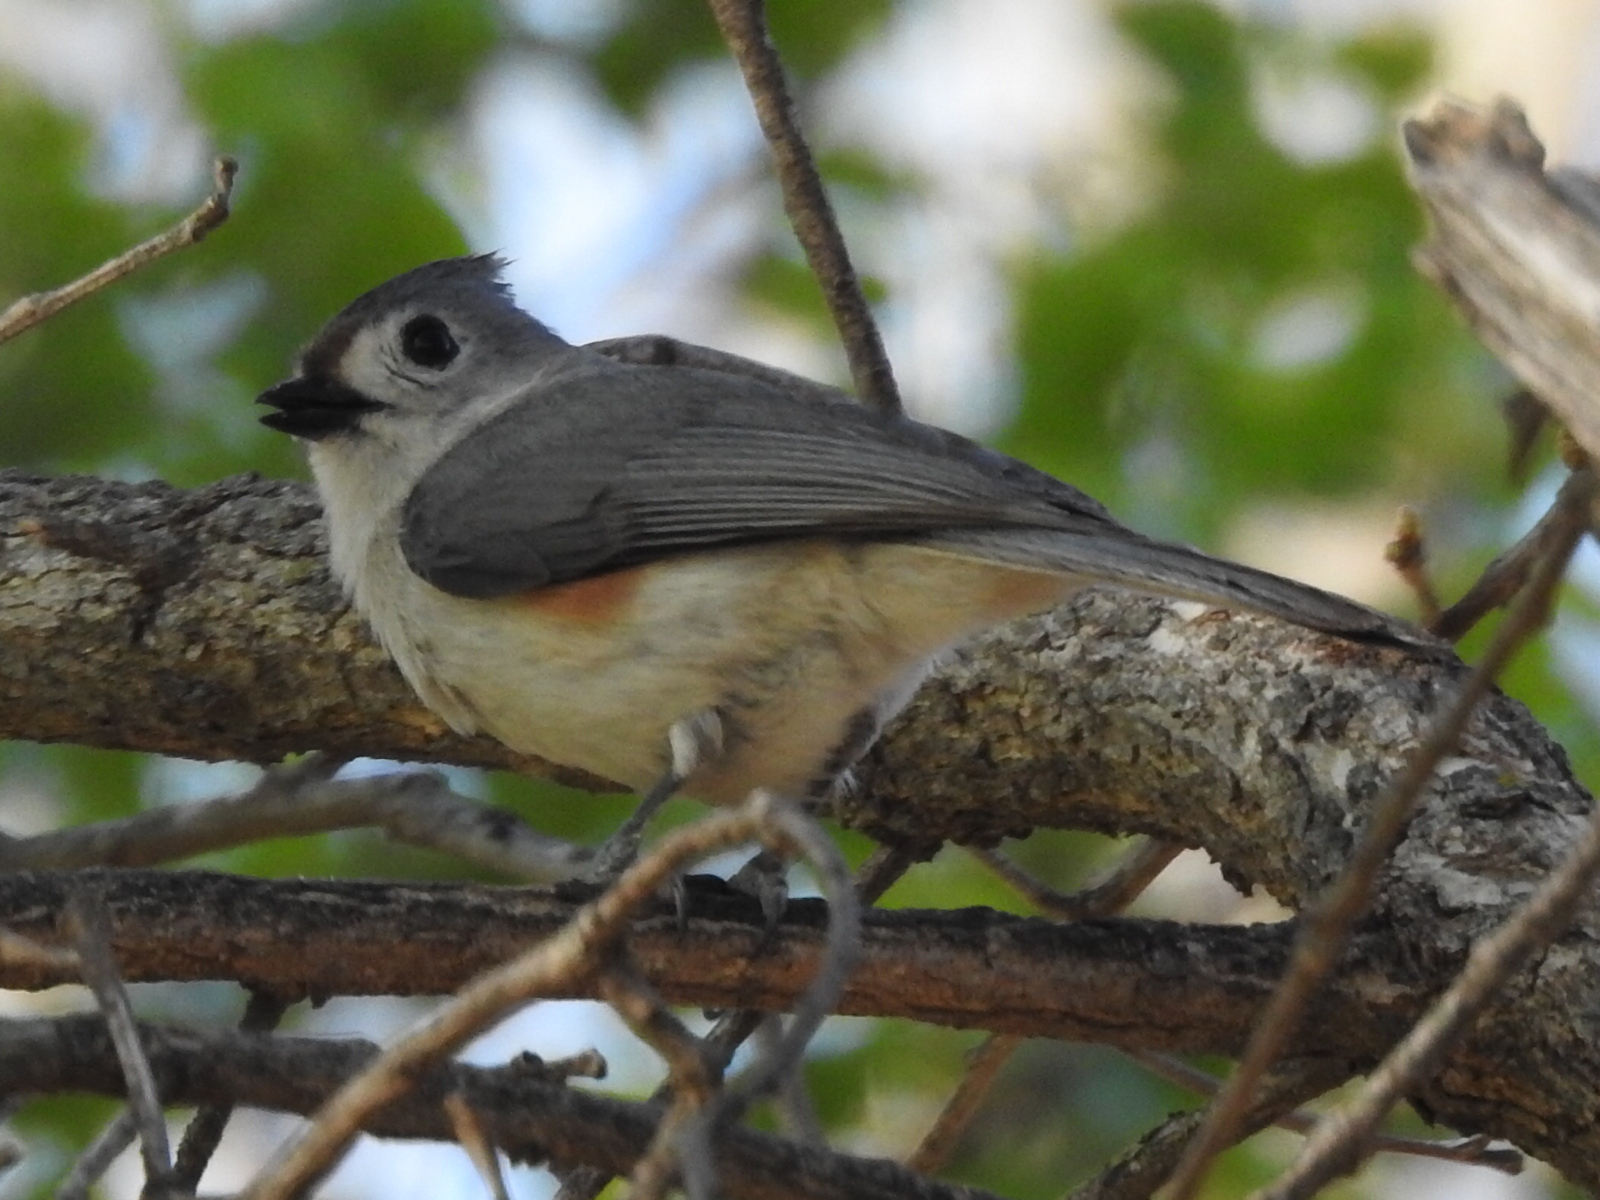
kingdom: Animalia
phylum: Chordata
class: Aves
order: Passeriformes
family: Paridae
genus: Baeolophus
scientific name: Baeolophus
